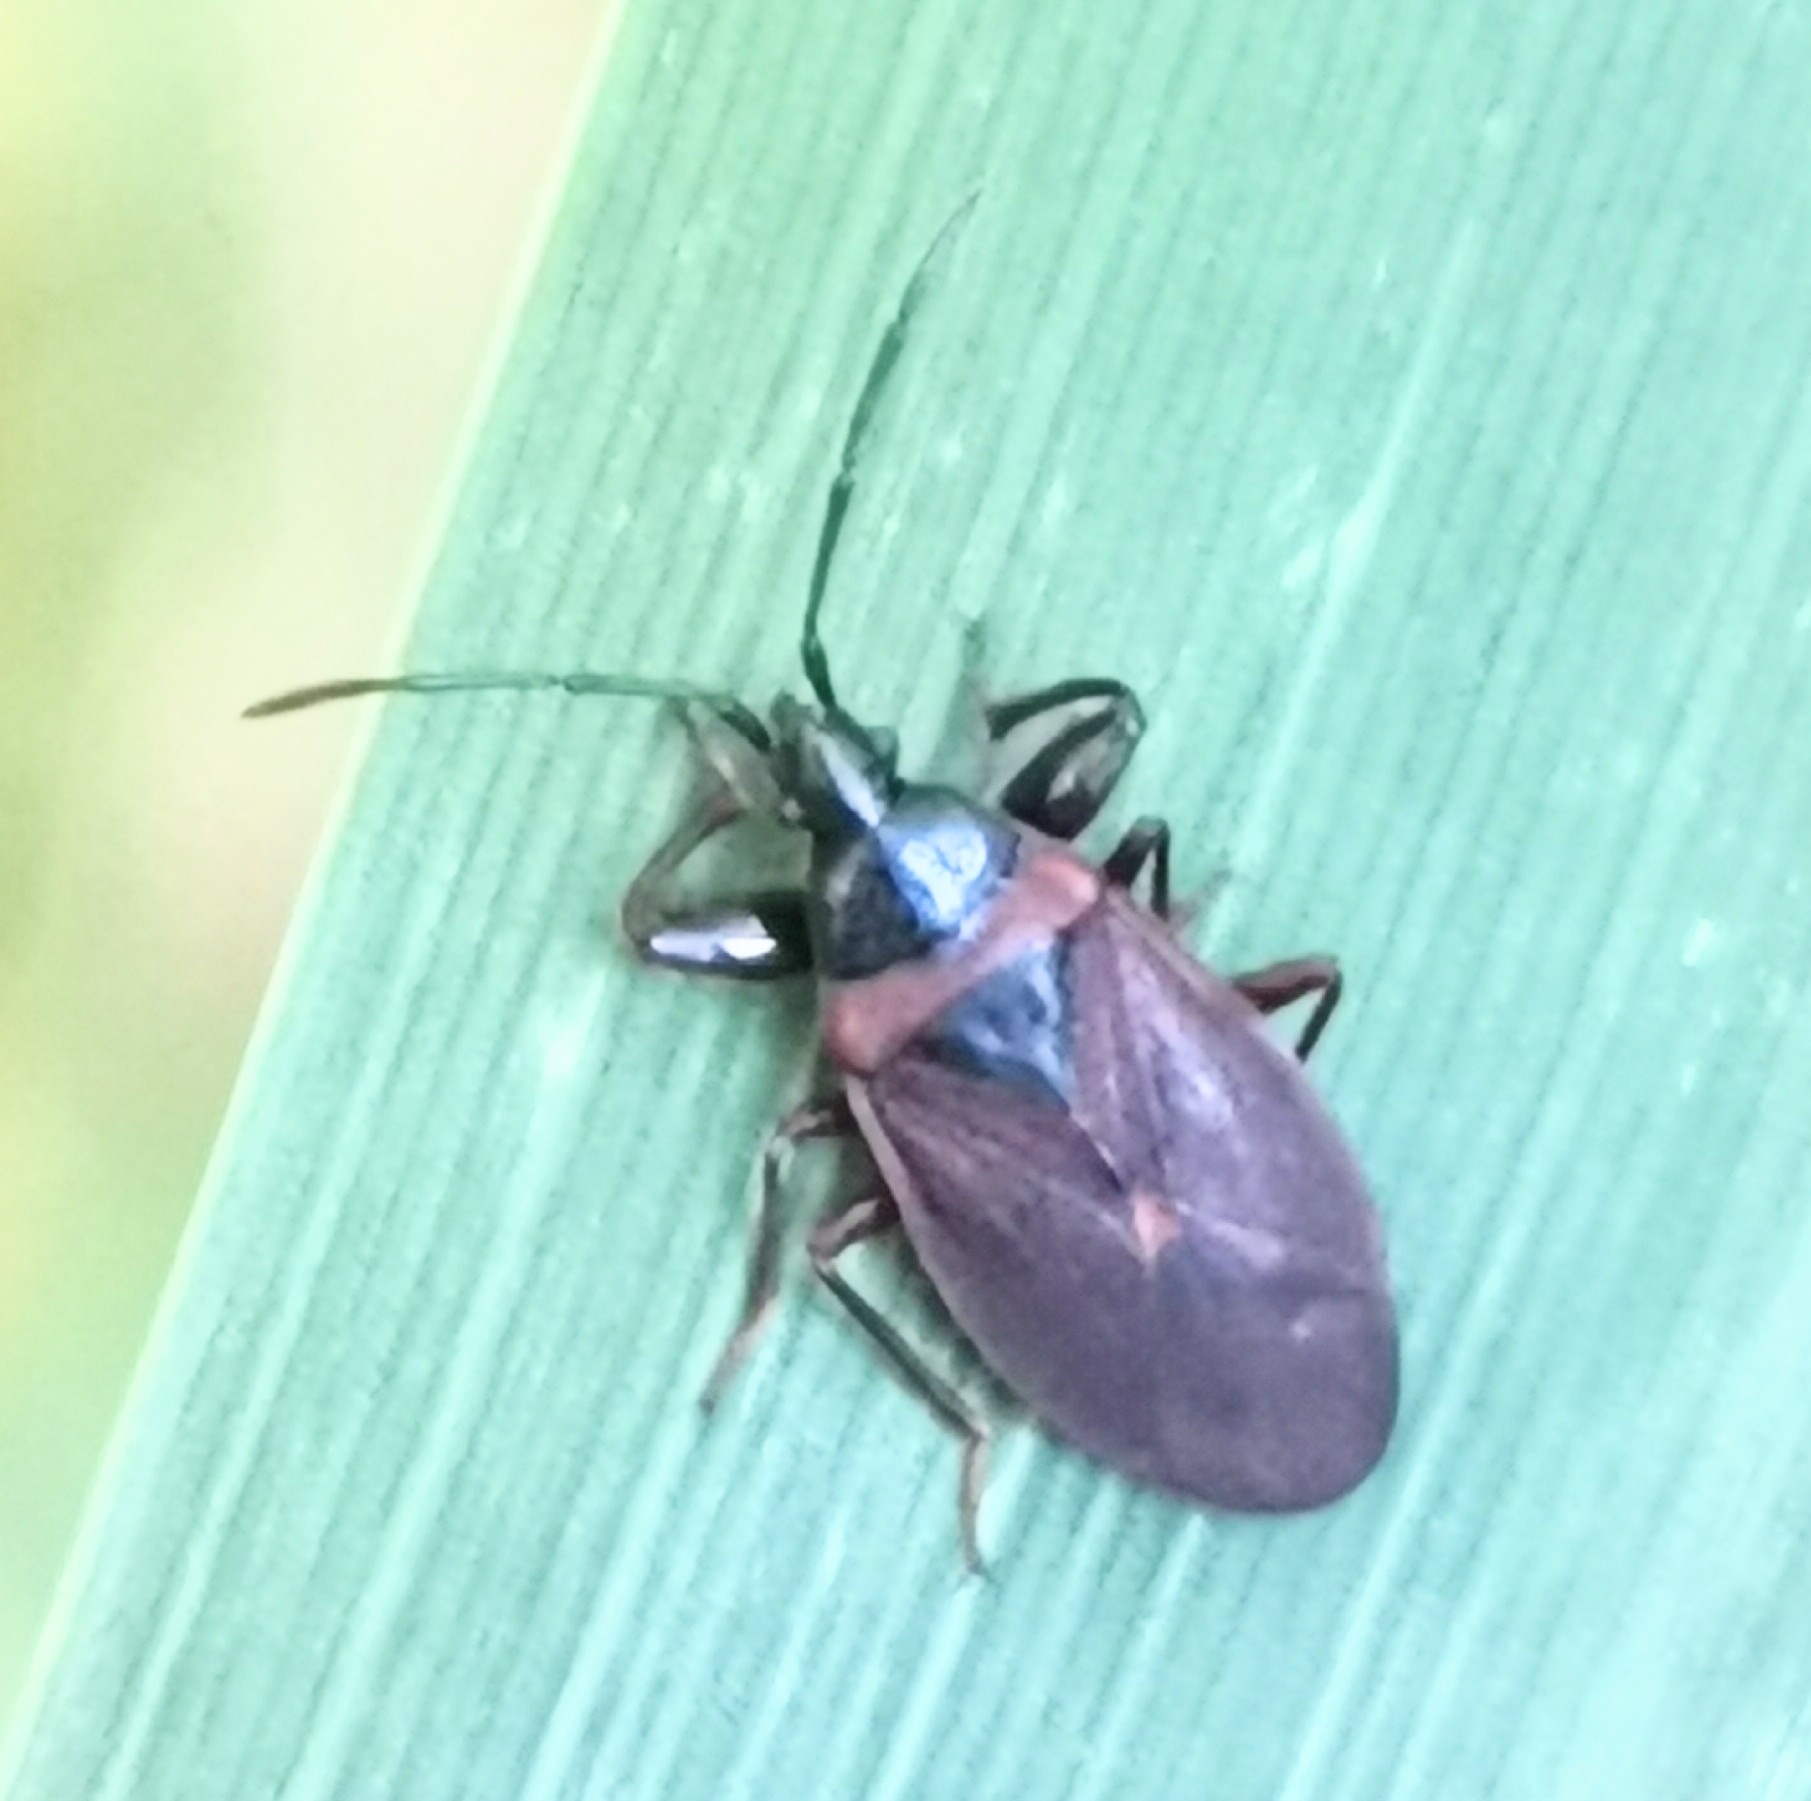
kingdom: Animalia
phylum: Arthropoda
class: Insecta
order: Hemiptera
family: Rhyparochromidae
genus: Gastrodes
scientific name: Gastrodes grossipes
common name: Pine cone bug
